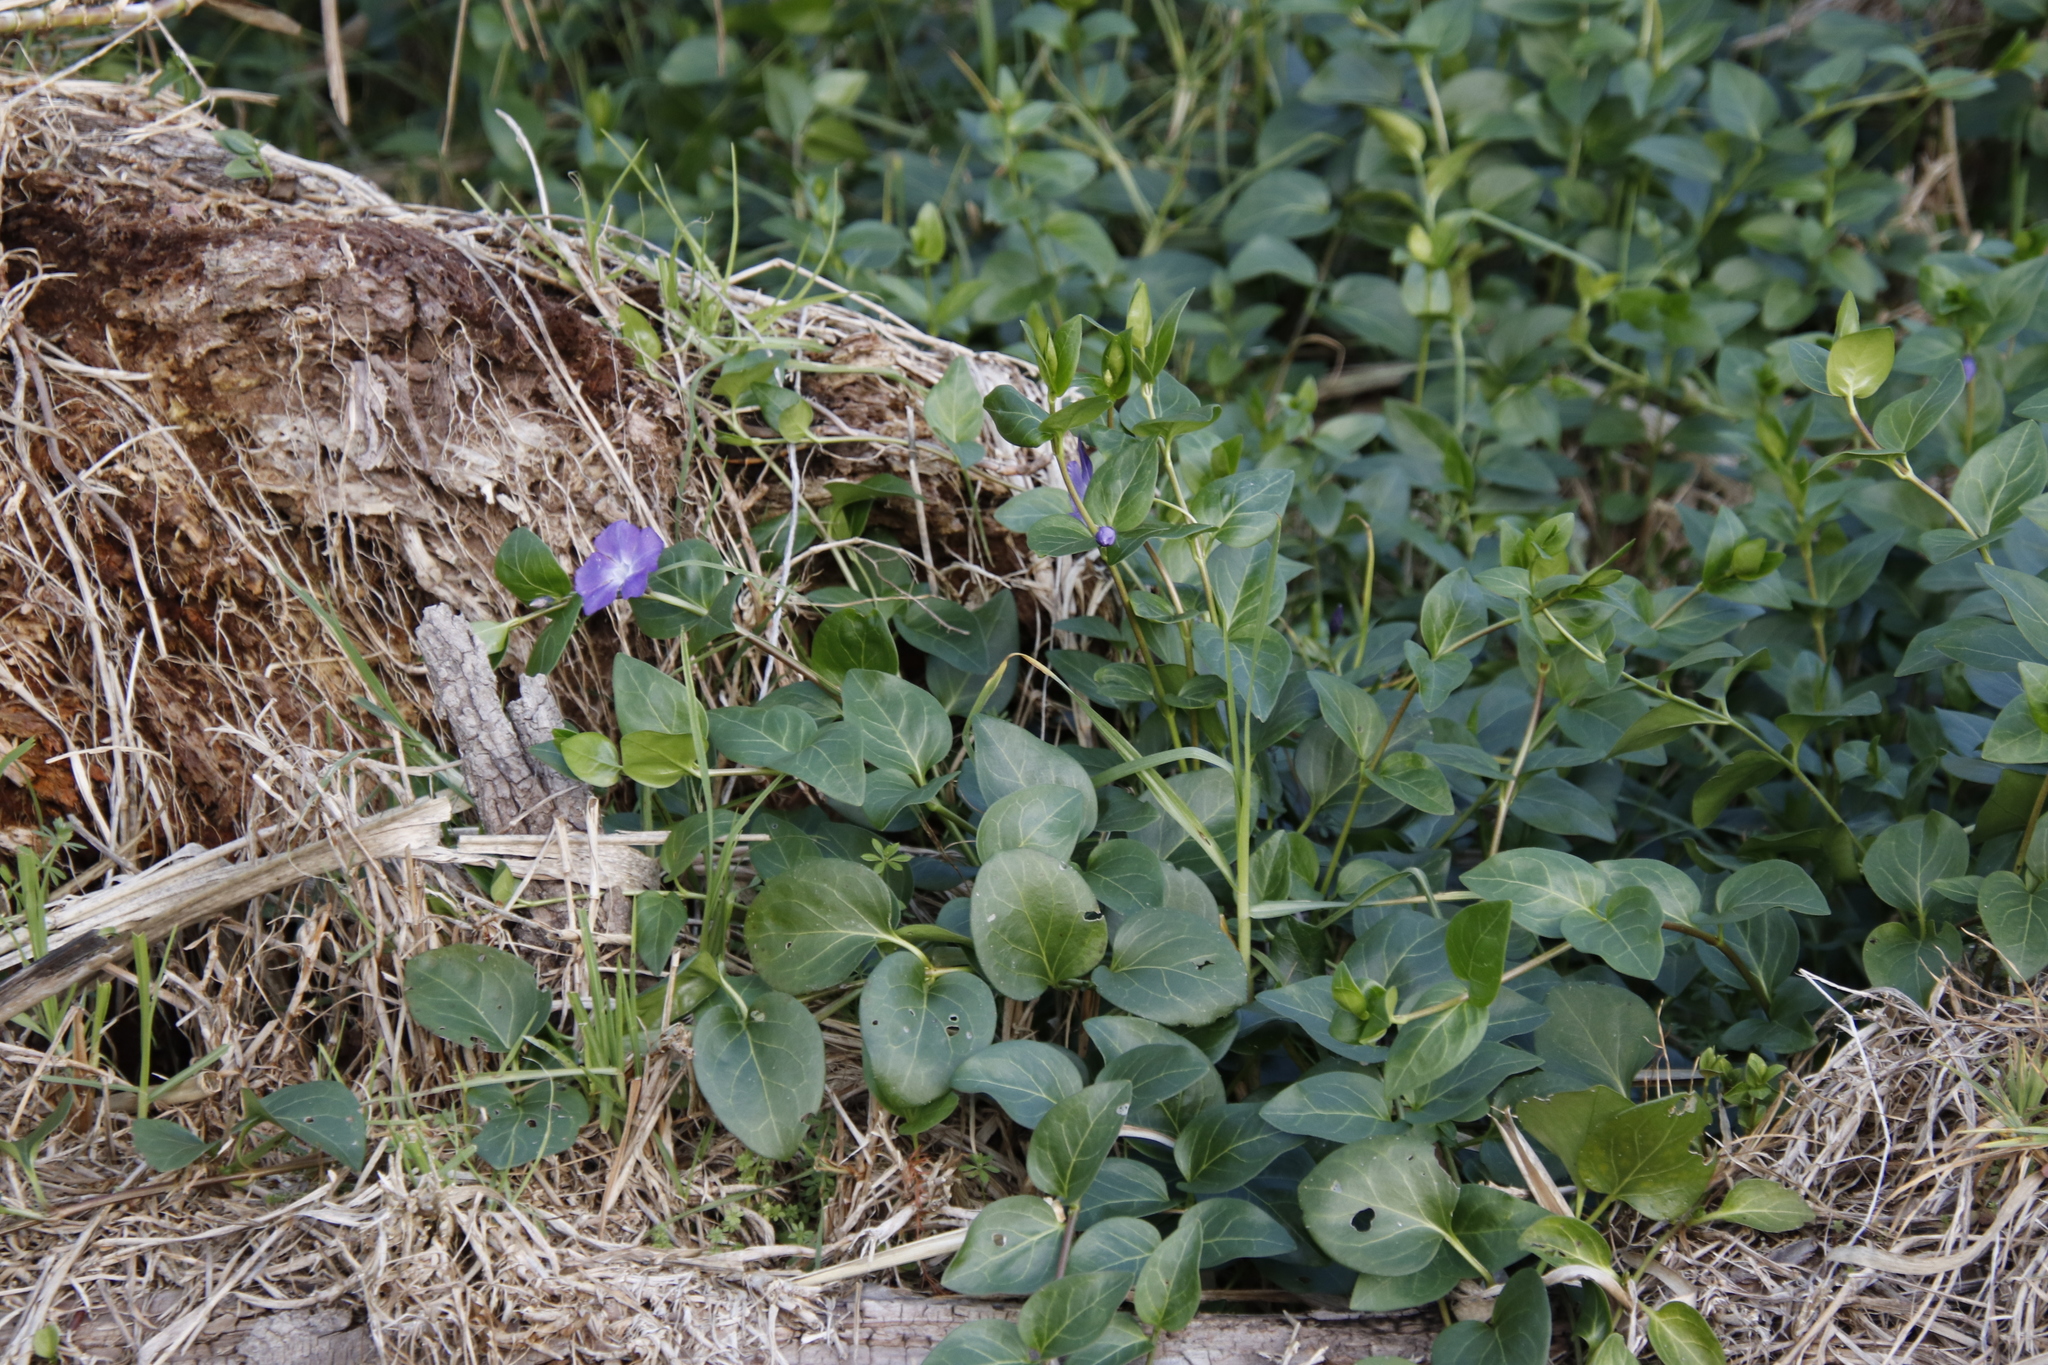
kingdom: Plantae
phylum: Tracheophyta
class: Magnoliopsida
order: Gentianales
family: Apocynaceae
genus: Vinca
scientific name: Vinca major
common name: Greater periwinkle
